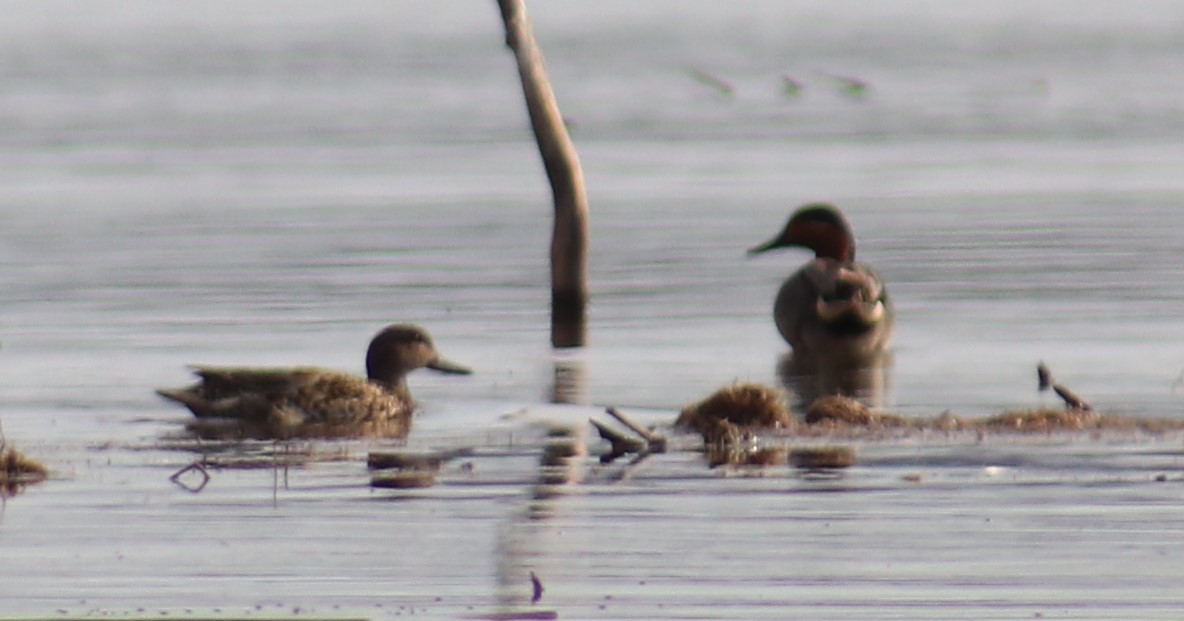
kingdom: Animalia
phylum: Chordata
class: Aves
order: Anseriformes
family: Anatidae
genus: Anas
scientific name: Anas crecca
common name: Eurasian teal
